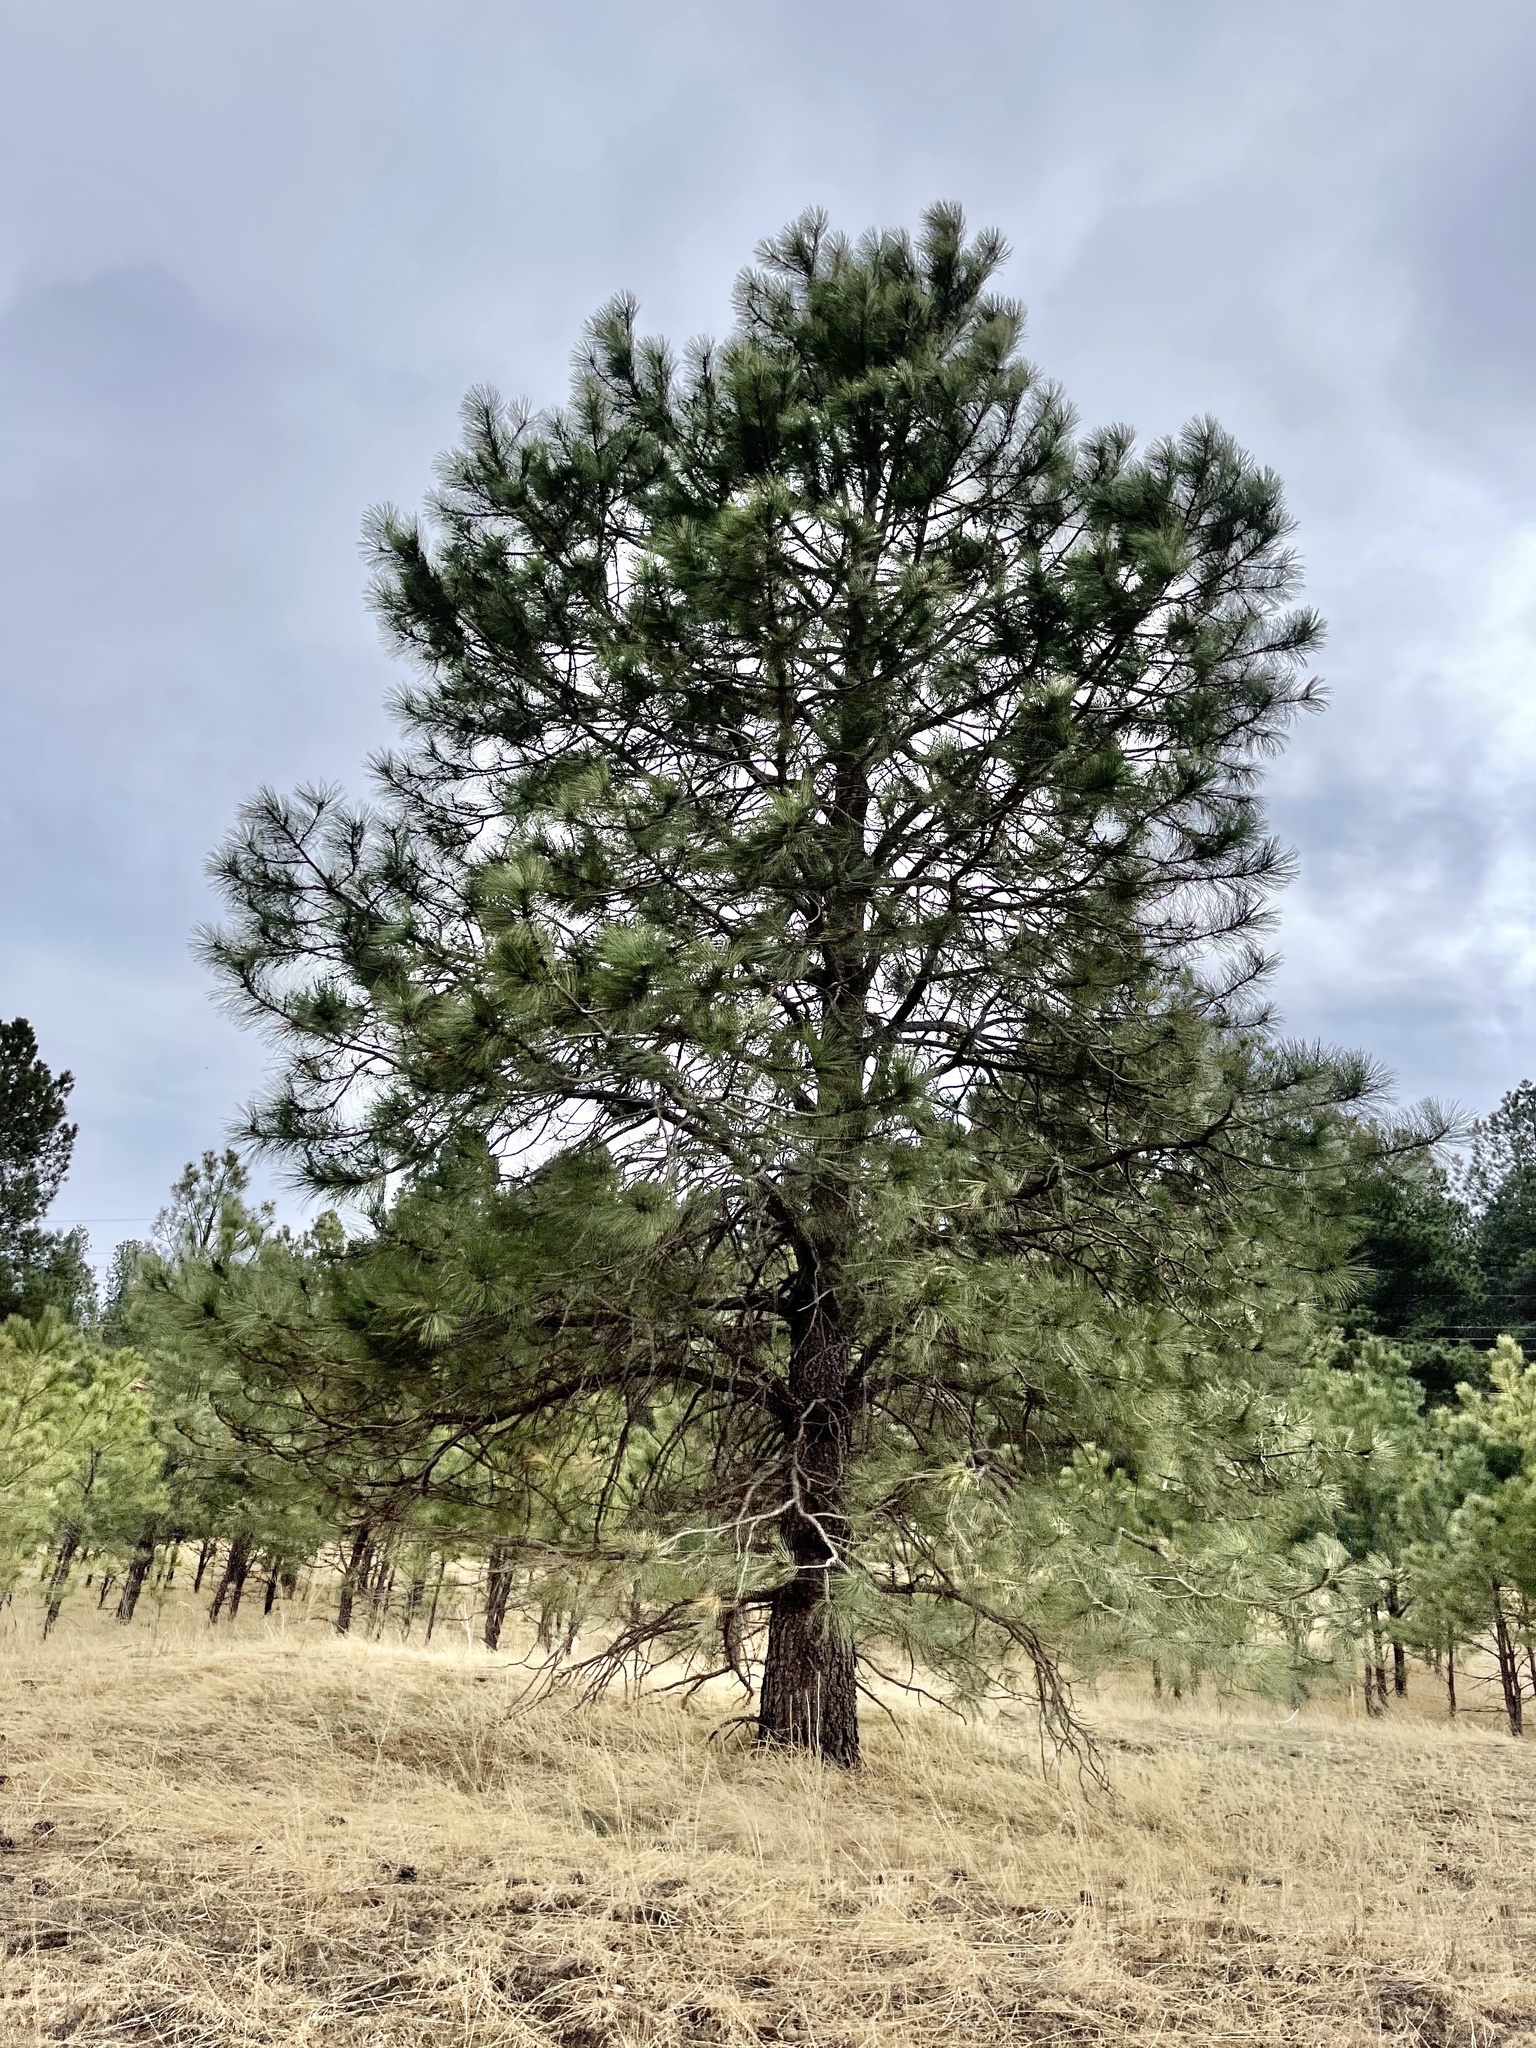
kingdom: Plantae
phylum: Tracheophyta
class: Pinopsida
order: Pinales
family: Pinaceae
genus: Pinus
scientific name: Pinus ponderosa
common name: Western yellow-pine
